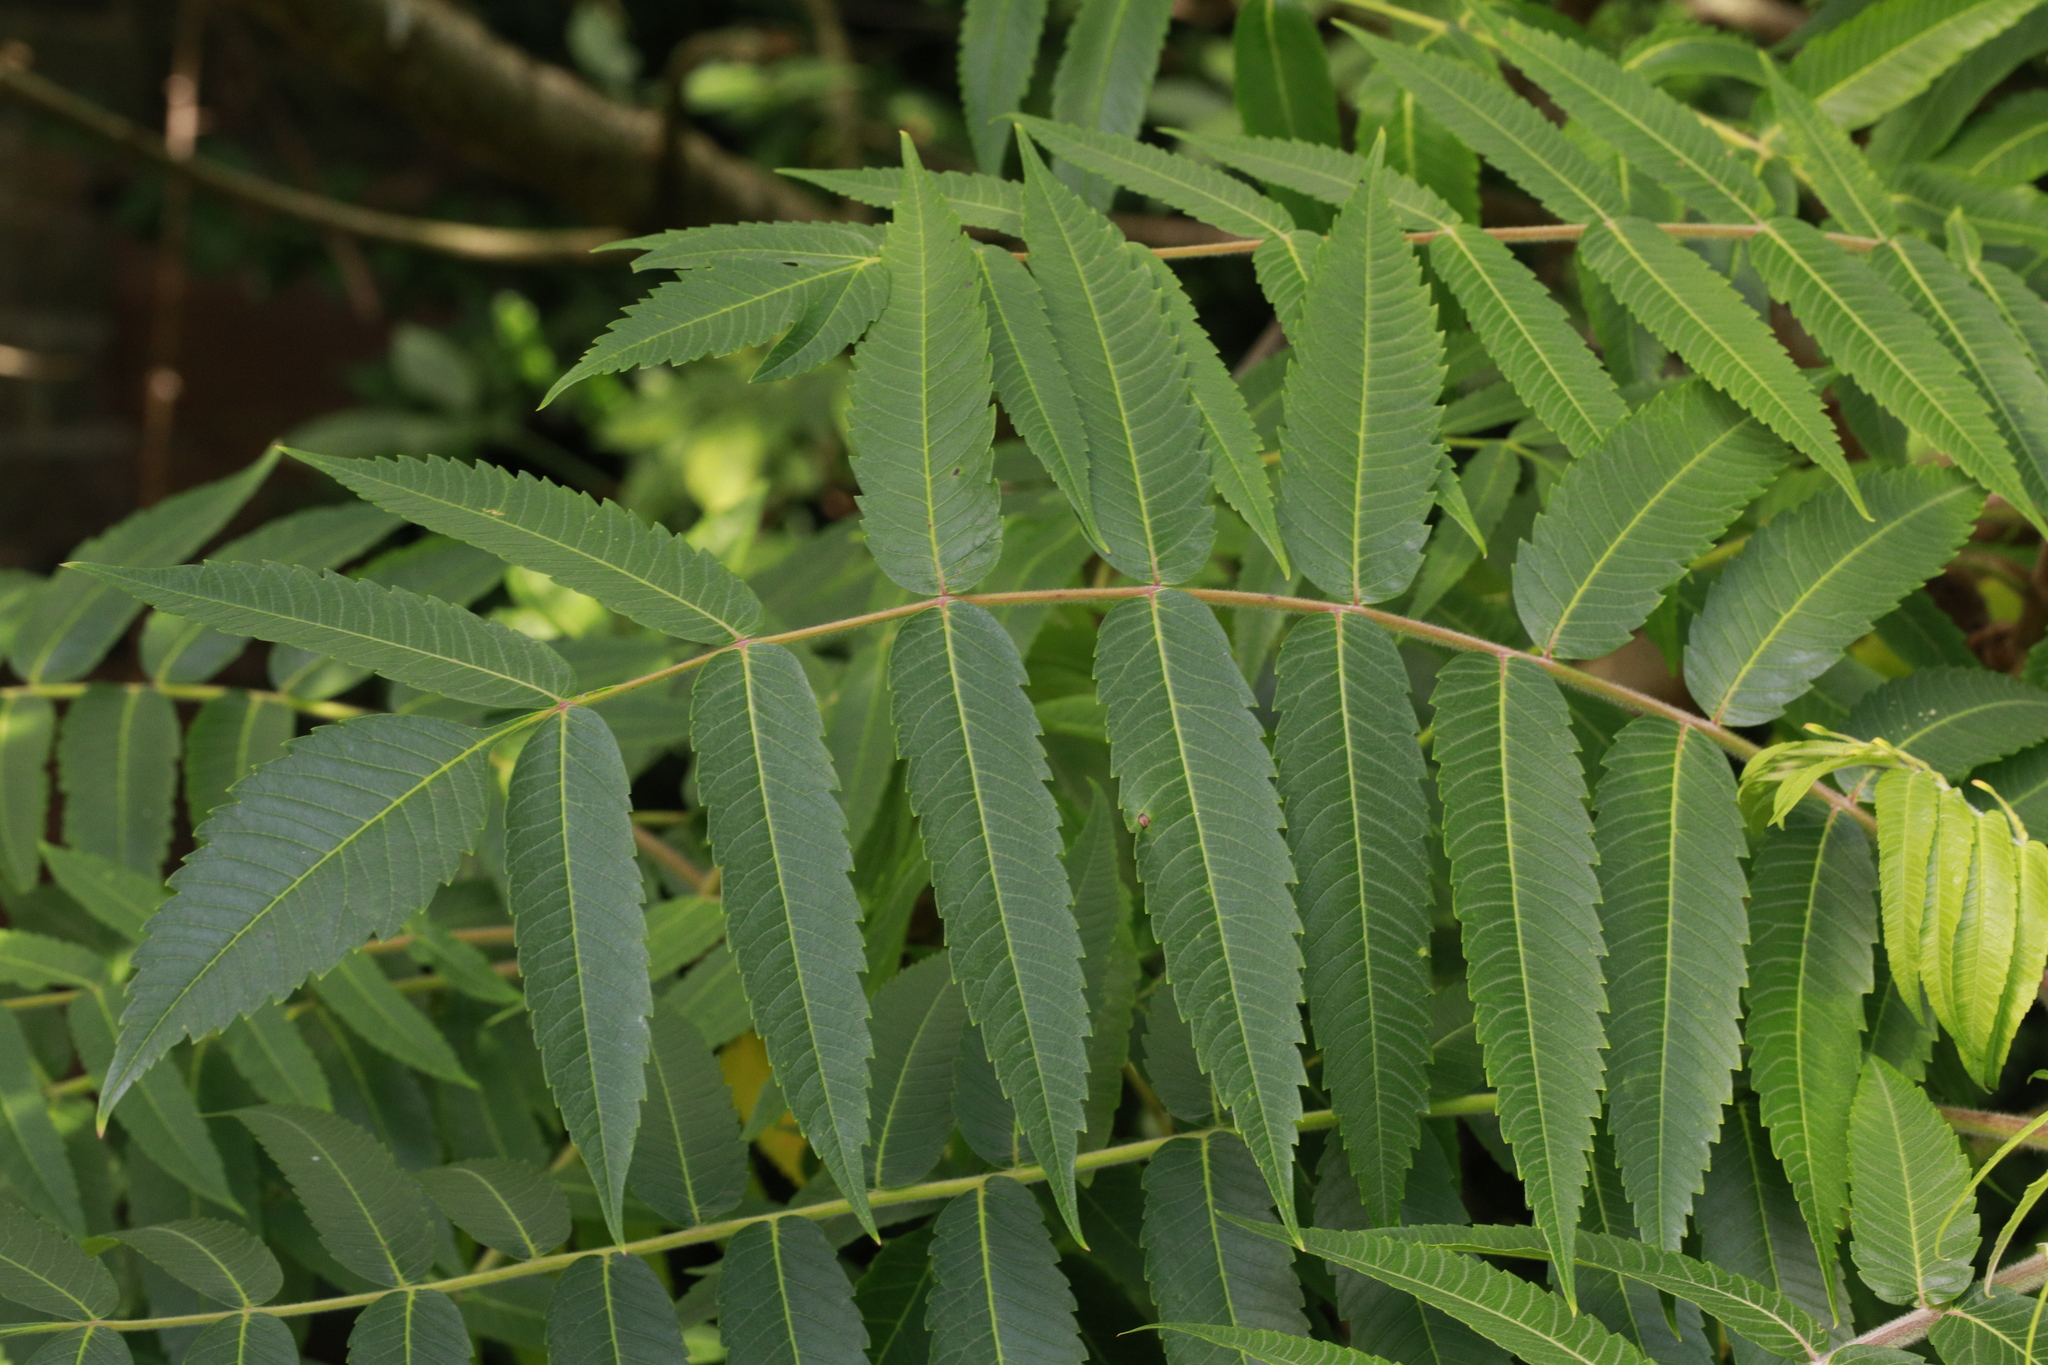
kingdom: Plantae
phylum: Tracheophyta
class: Magnoliopsida
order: Sapindales
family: Anacardiaceae
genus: Rhus
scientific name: Rhus typhina
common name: Staghorn sumac
